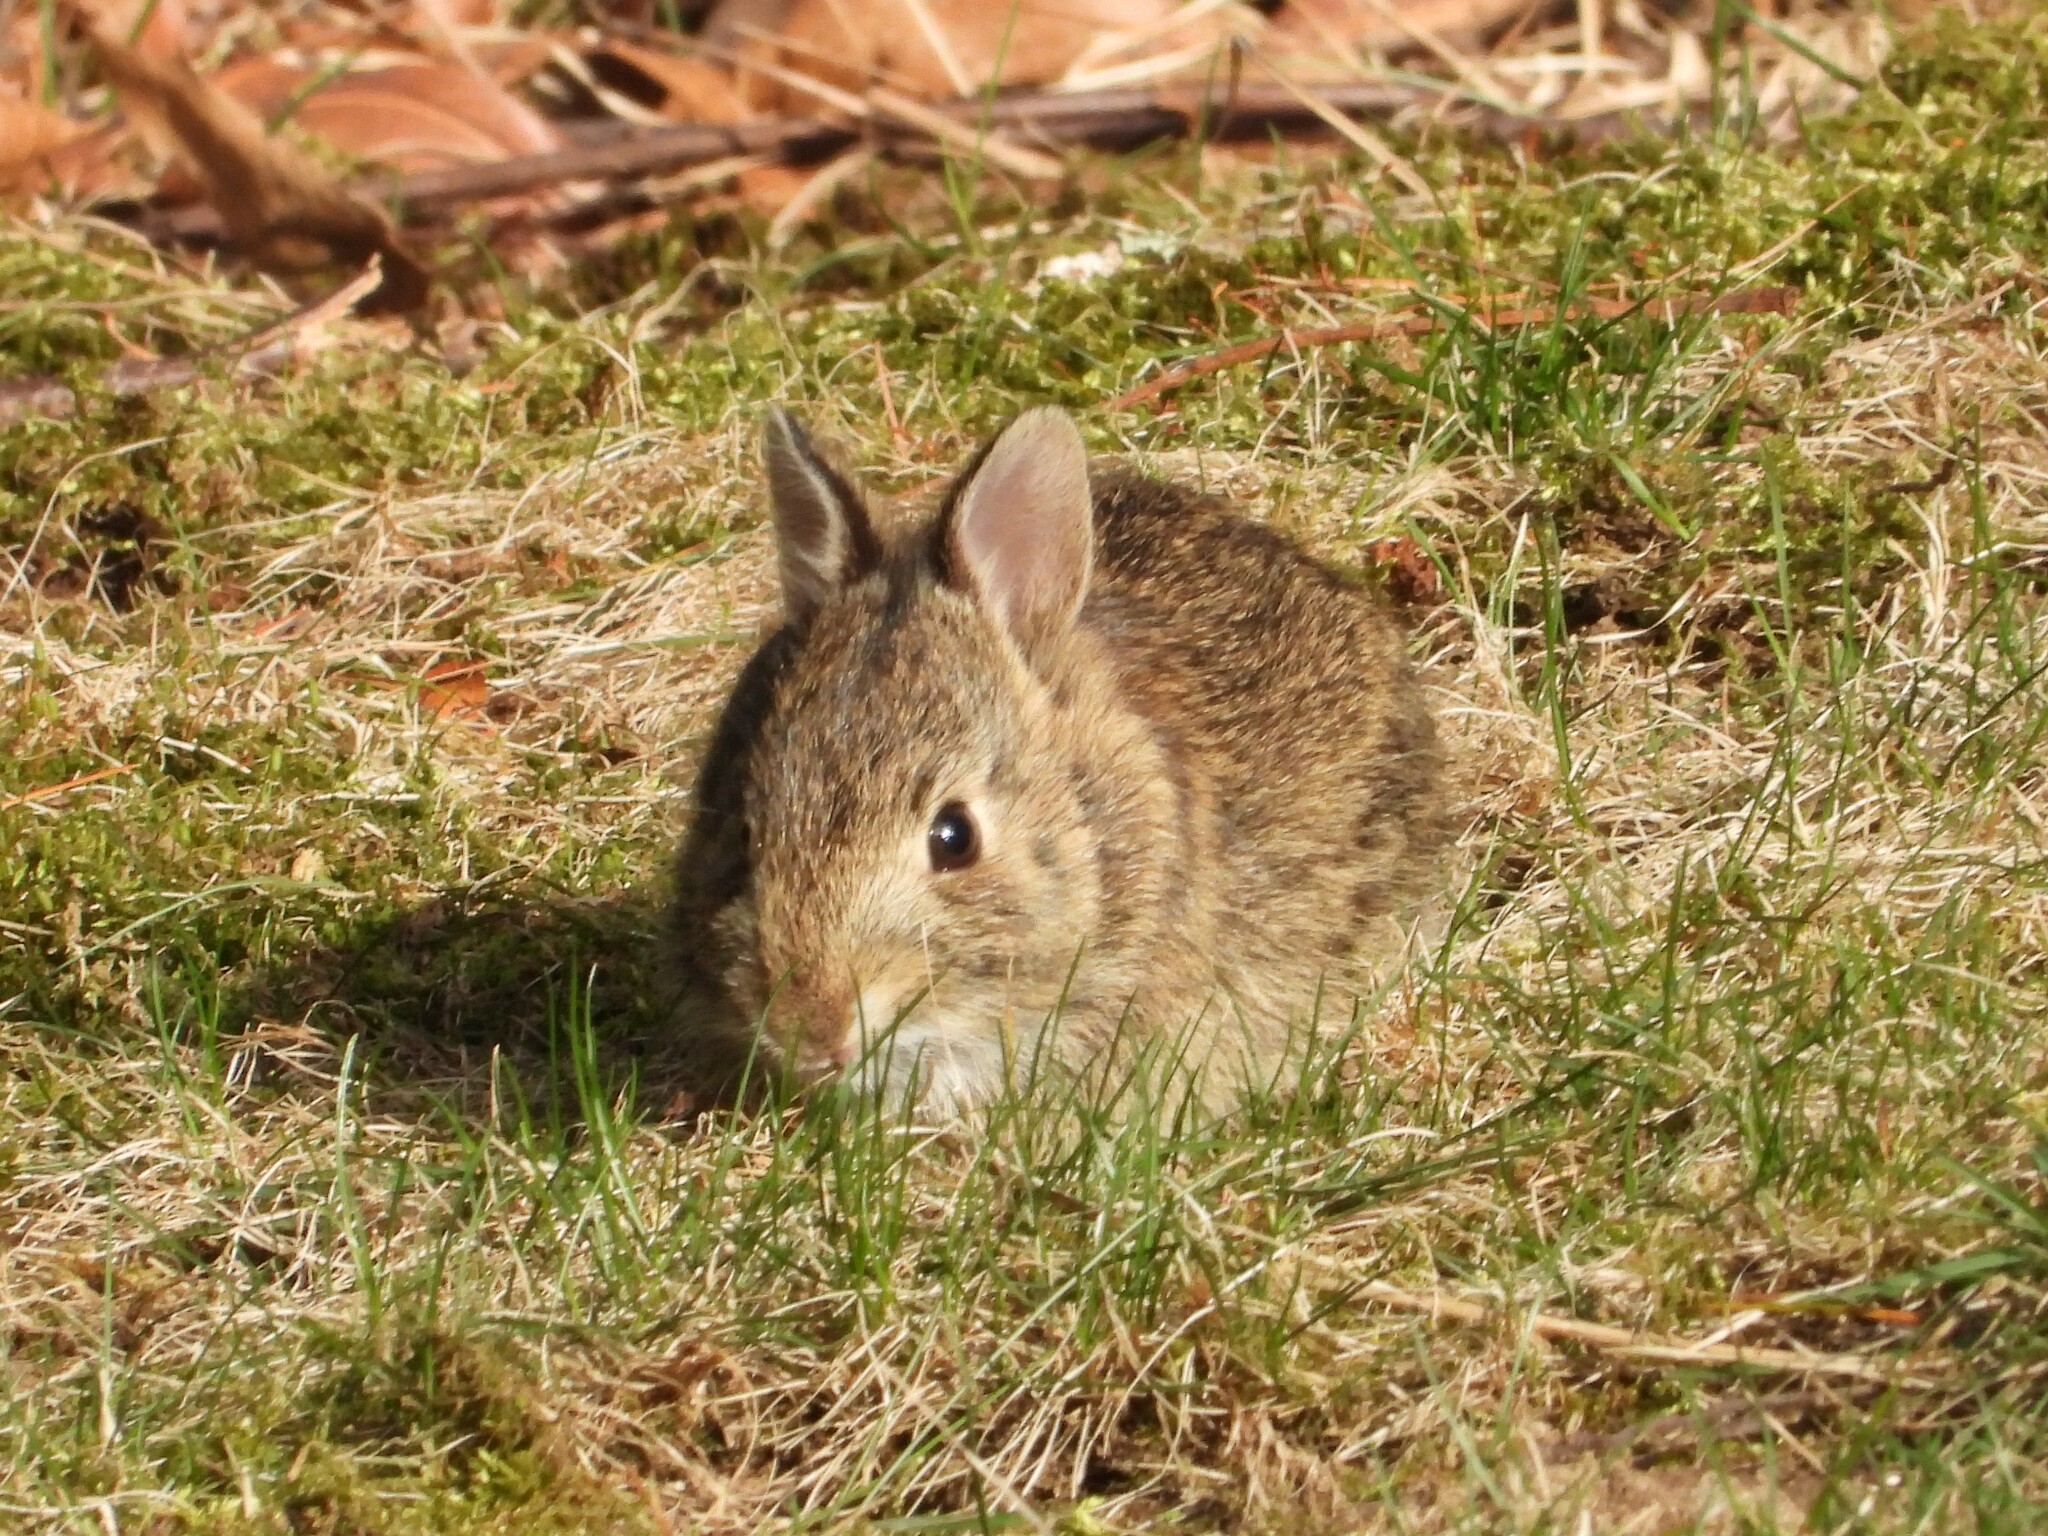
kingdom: Animalia
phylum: Chordata
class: Mammalia
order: Lagomorpha
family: Leporidae
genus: Sylvilagus
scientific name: Sylvilagus floridanus
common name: Eastern cottontail
